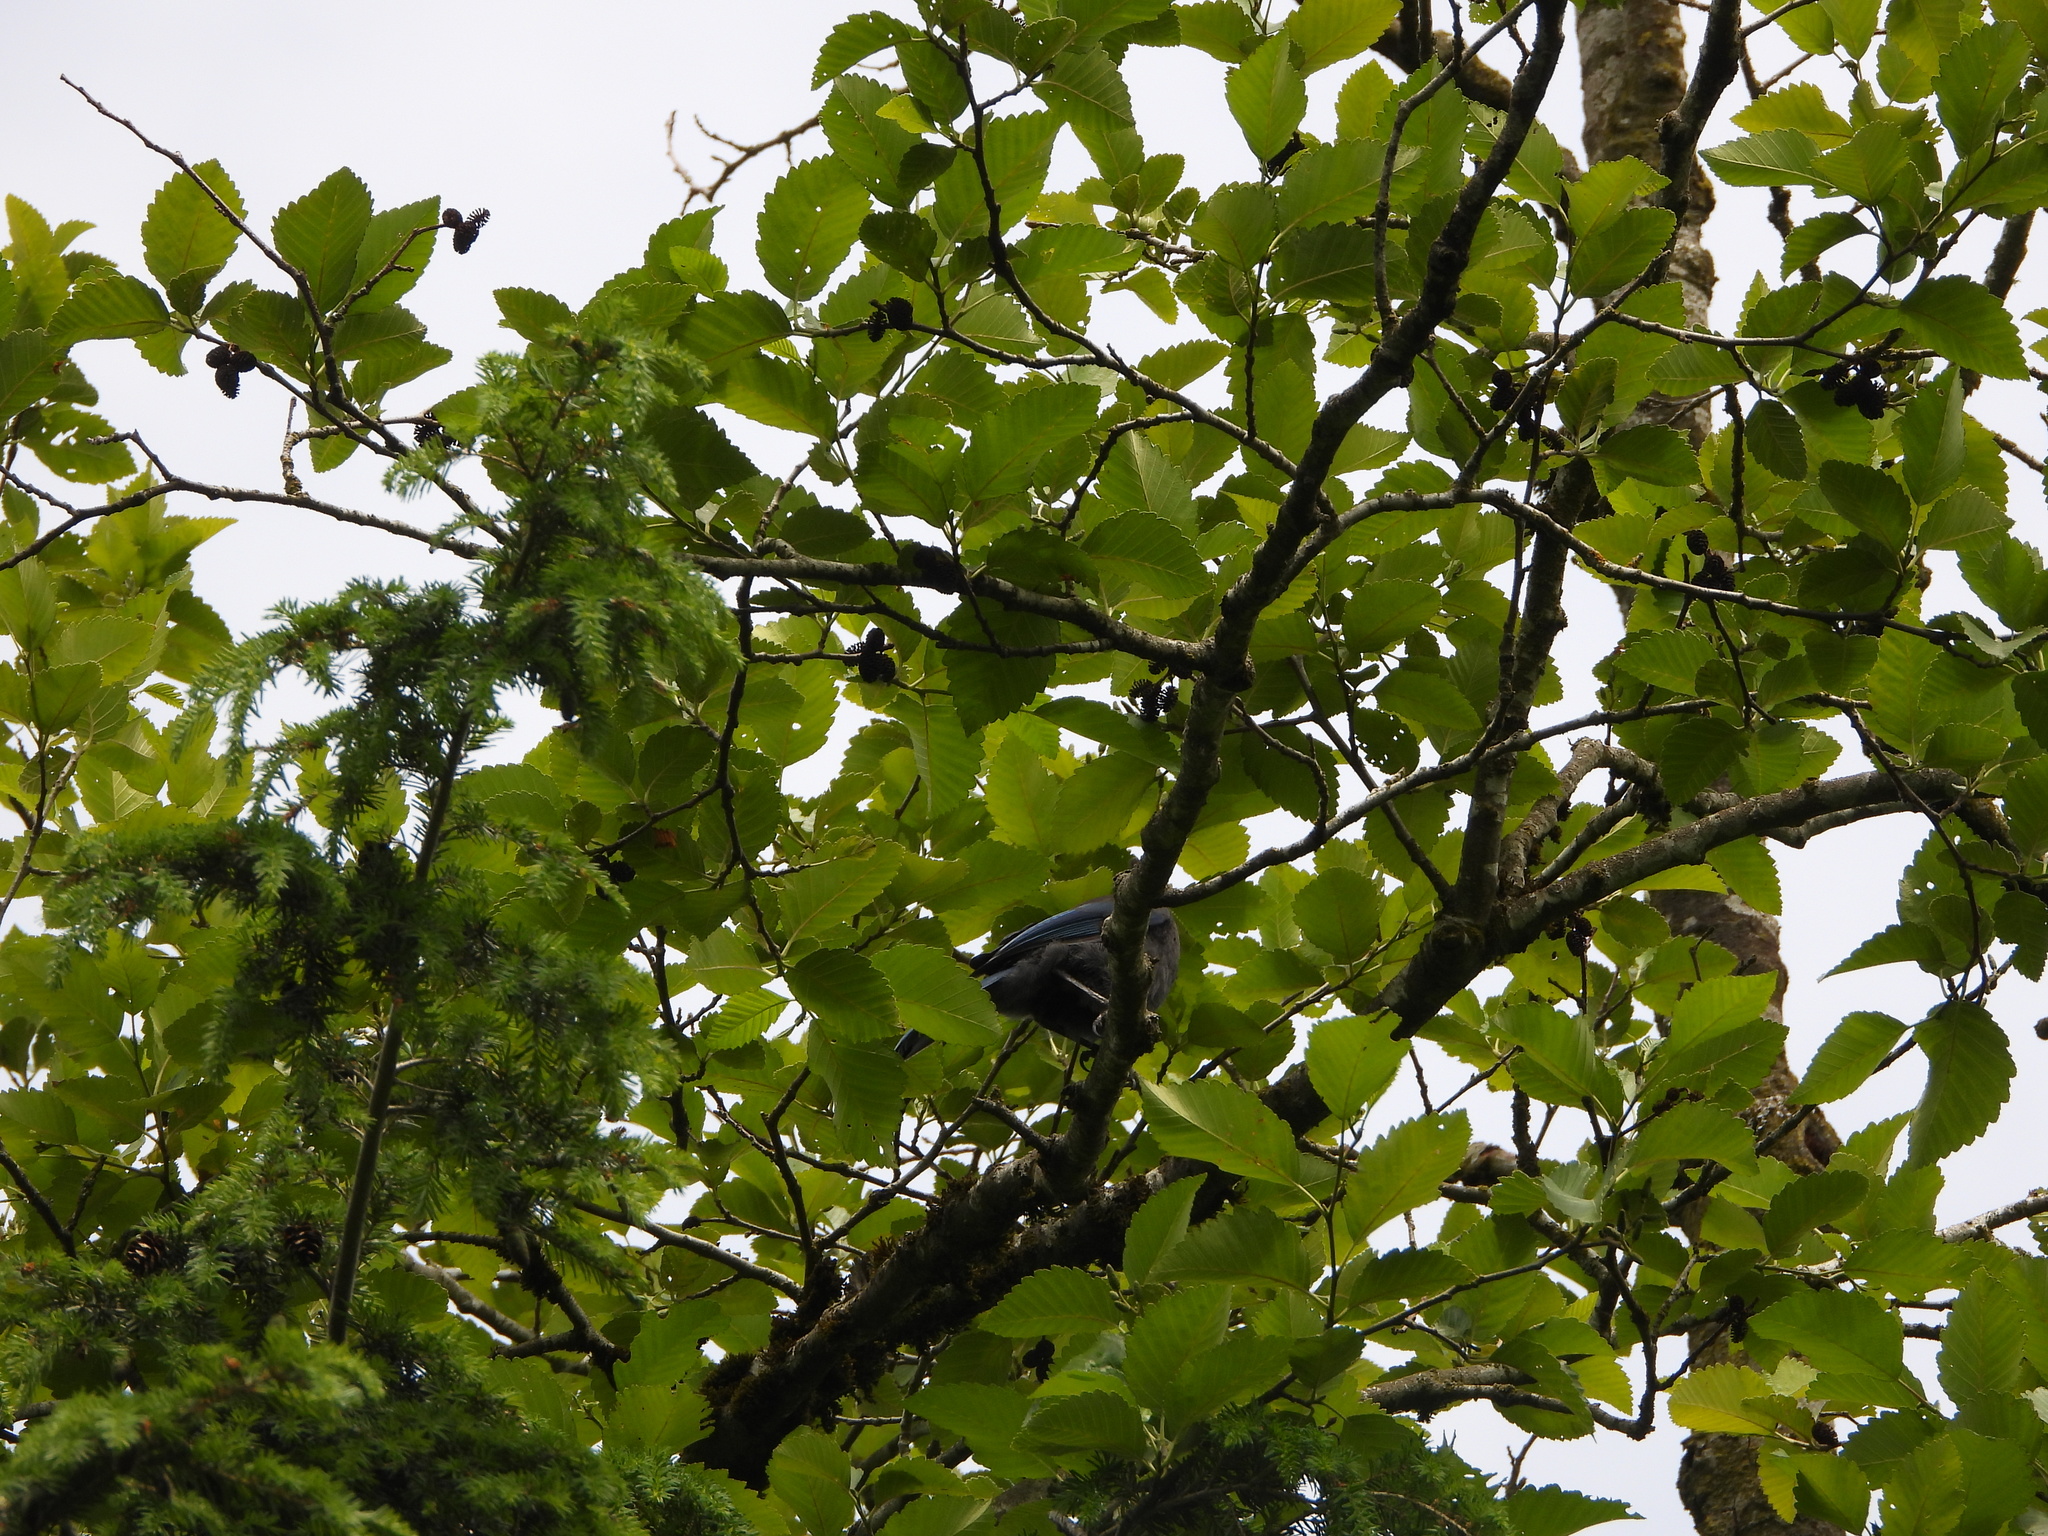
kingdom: Animalia
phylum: Chordata
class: Aves
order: Passeriformes
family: Corvidae
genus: Cyanocitta
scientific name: Cyanocitta stelleri
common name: Steller's jay
